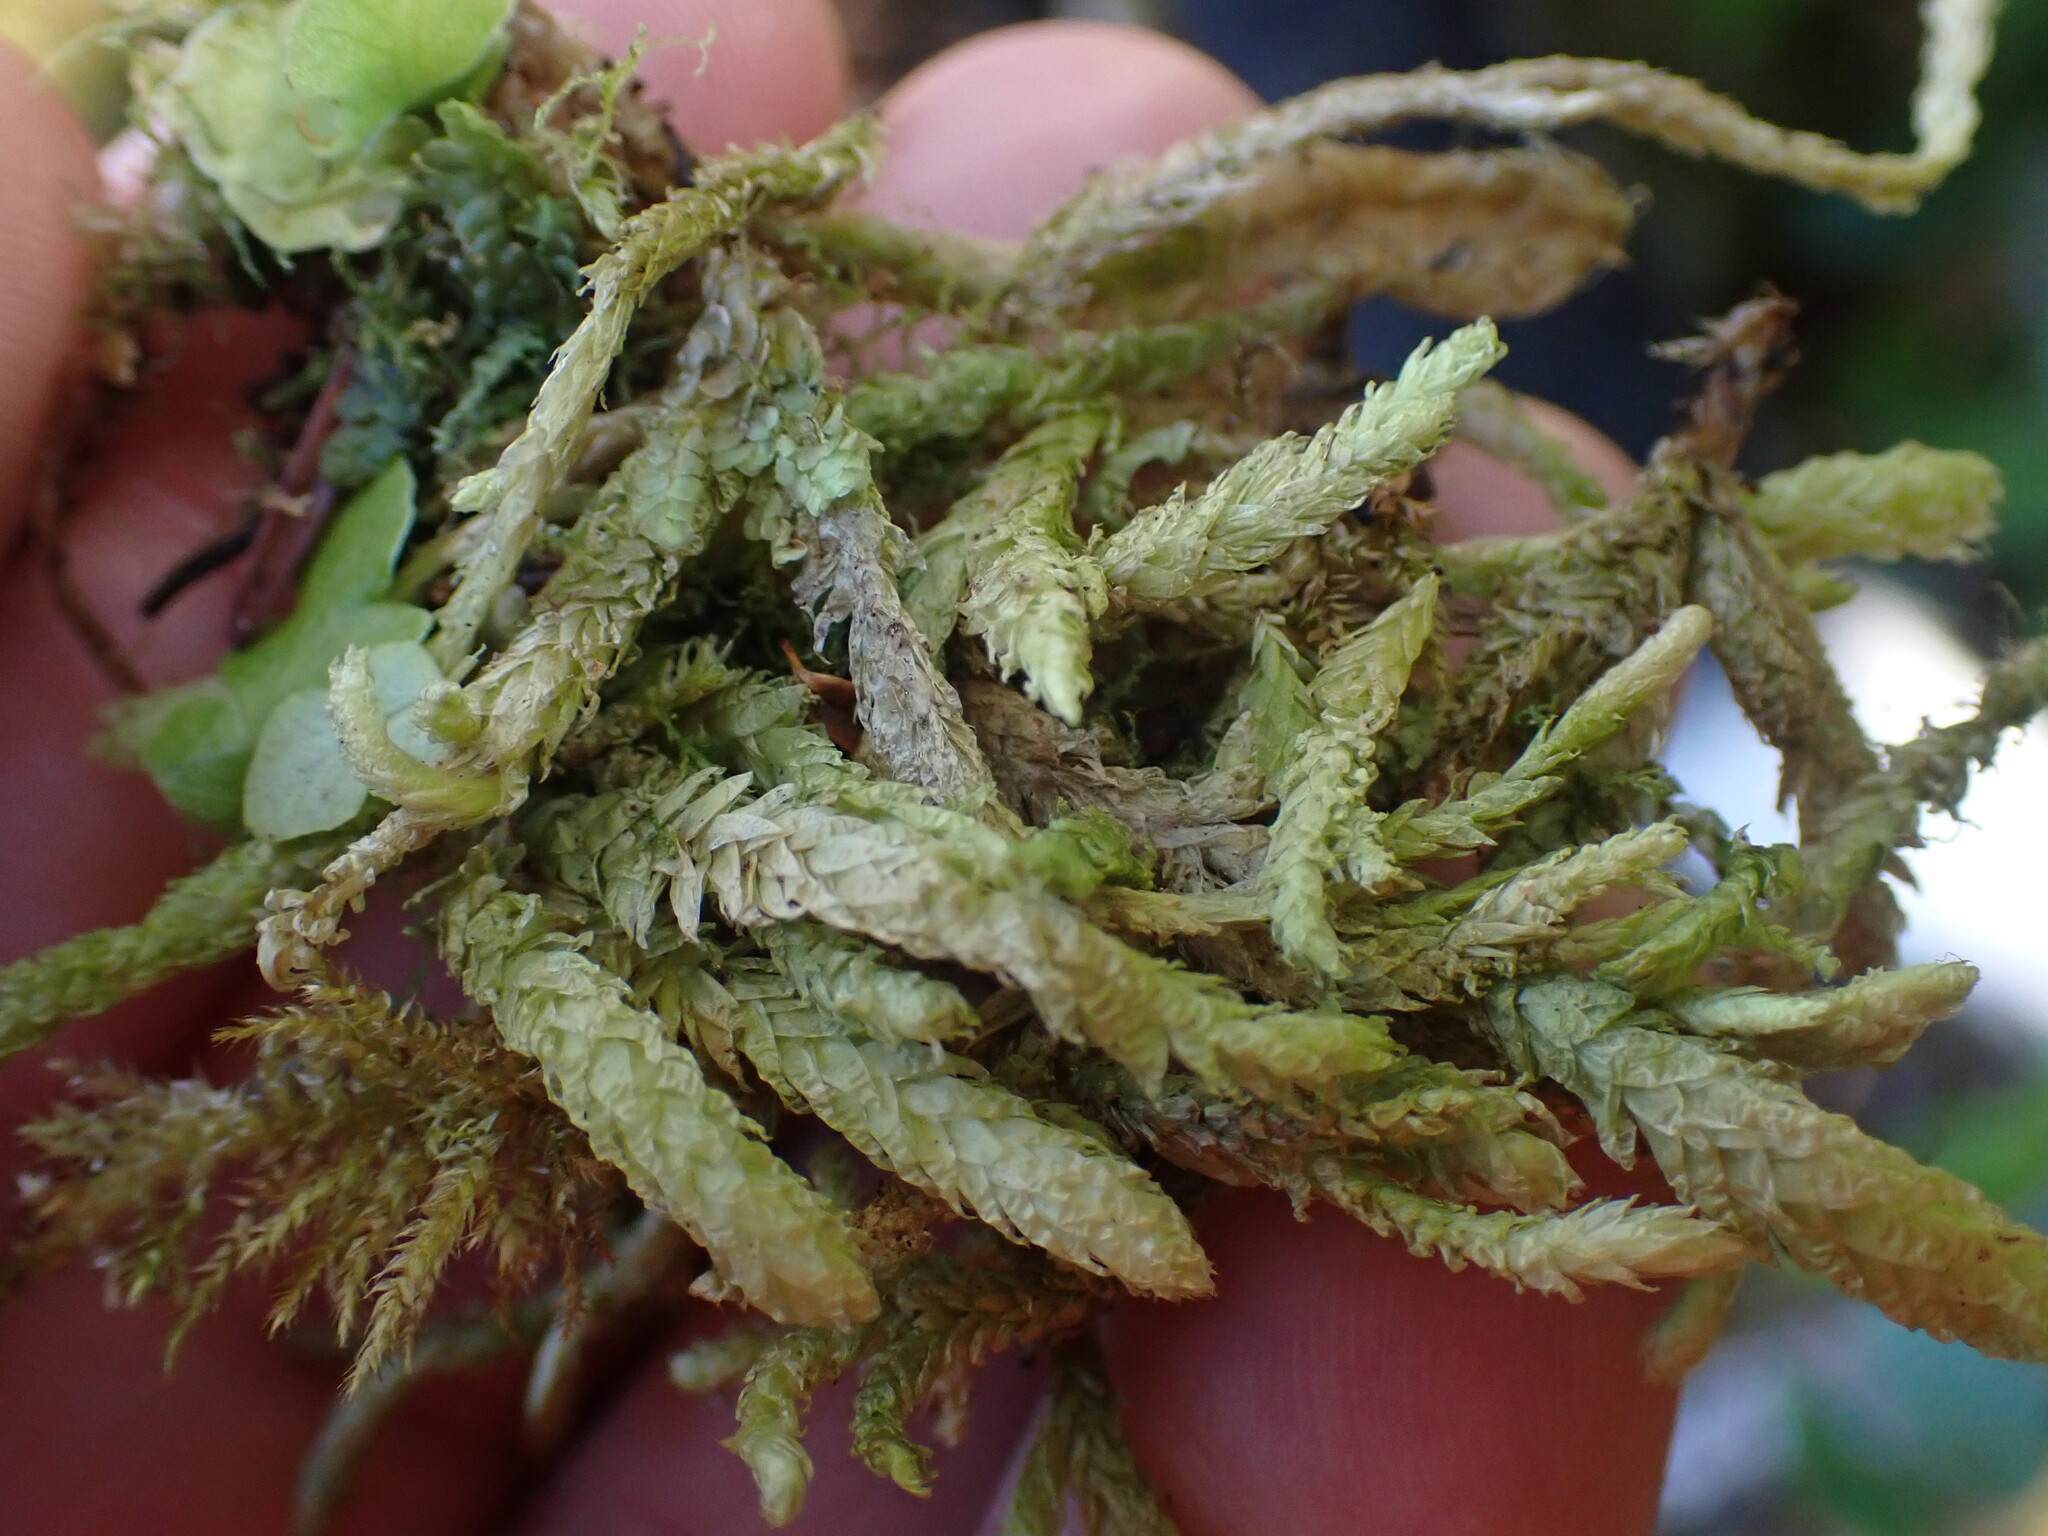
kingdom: Plantae
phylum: Bryophyta
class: Bryopsida
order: Hypnales
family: Plagiotheciaceae
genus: Plagiothecium
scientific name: Plagiothecium undulatum
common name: Waved silk-moss
